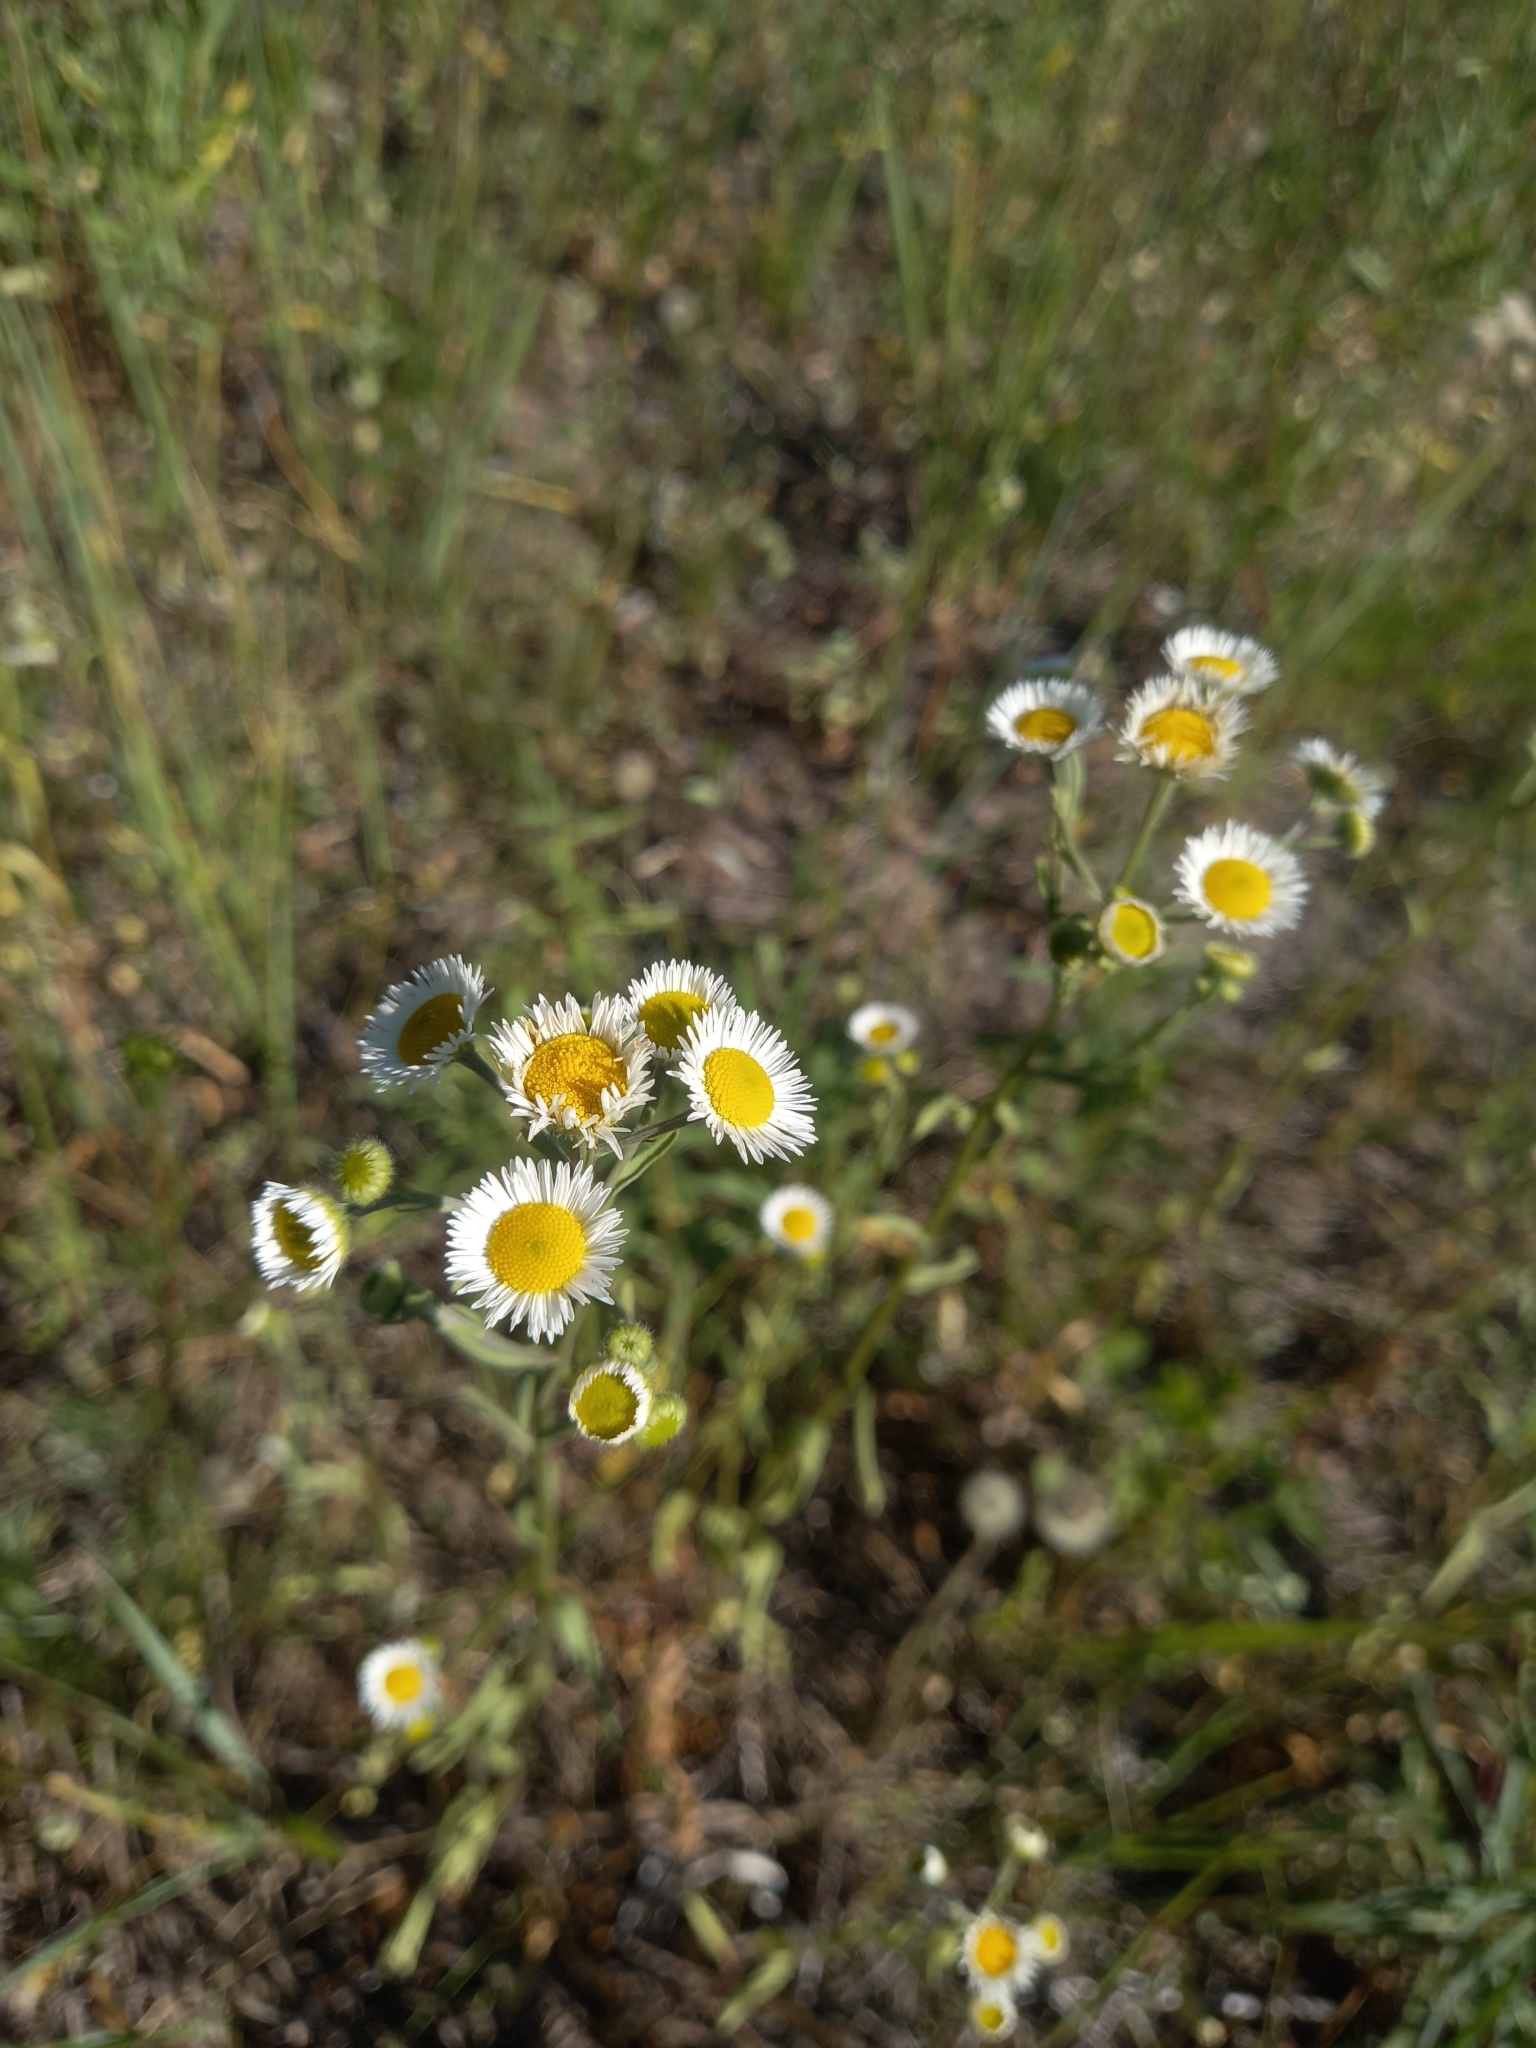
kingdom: Plantae
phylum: Tracheophyta
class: Magnoliopsida
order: Asterales
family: Asteraceae
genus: Erigeron
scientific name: Erigeron annuus
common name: Tall fleabane
